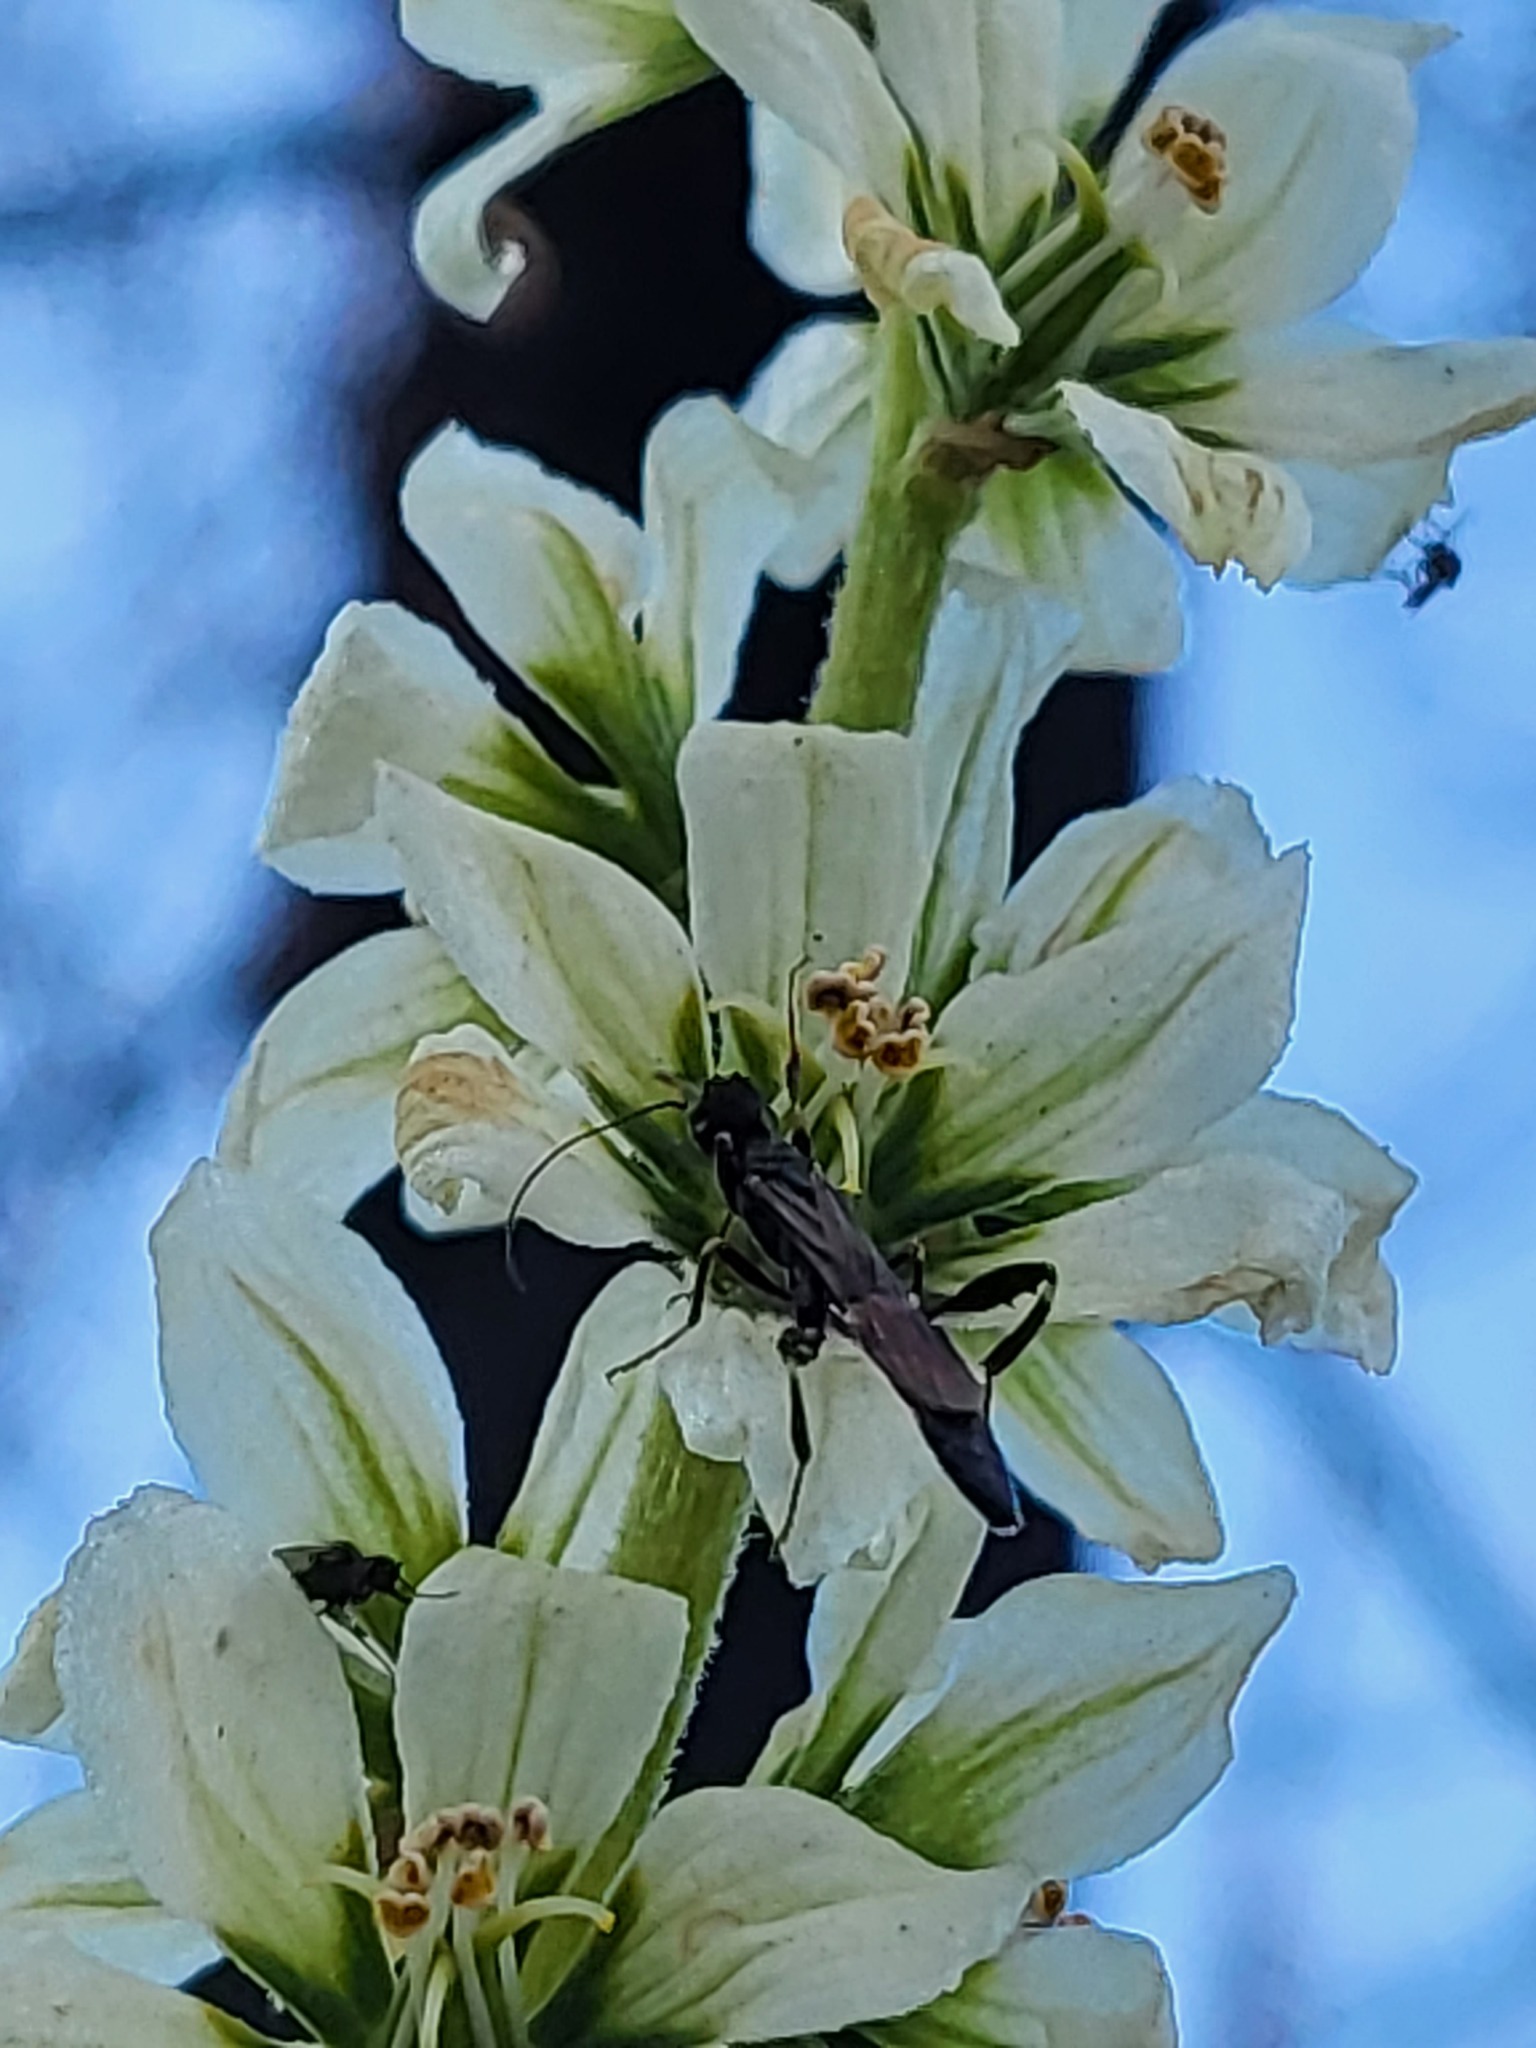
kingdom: Plantae
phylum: Tracheophyta
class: Liliopsida
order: Liliales
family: Melanthiaceae
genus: Veratrum
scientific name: Veratrum californicum
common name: California veratrum
